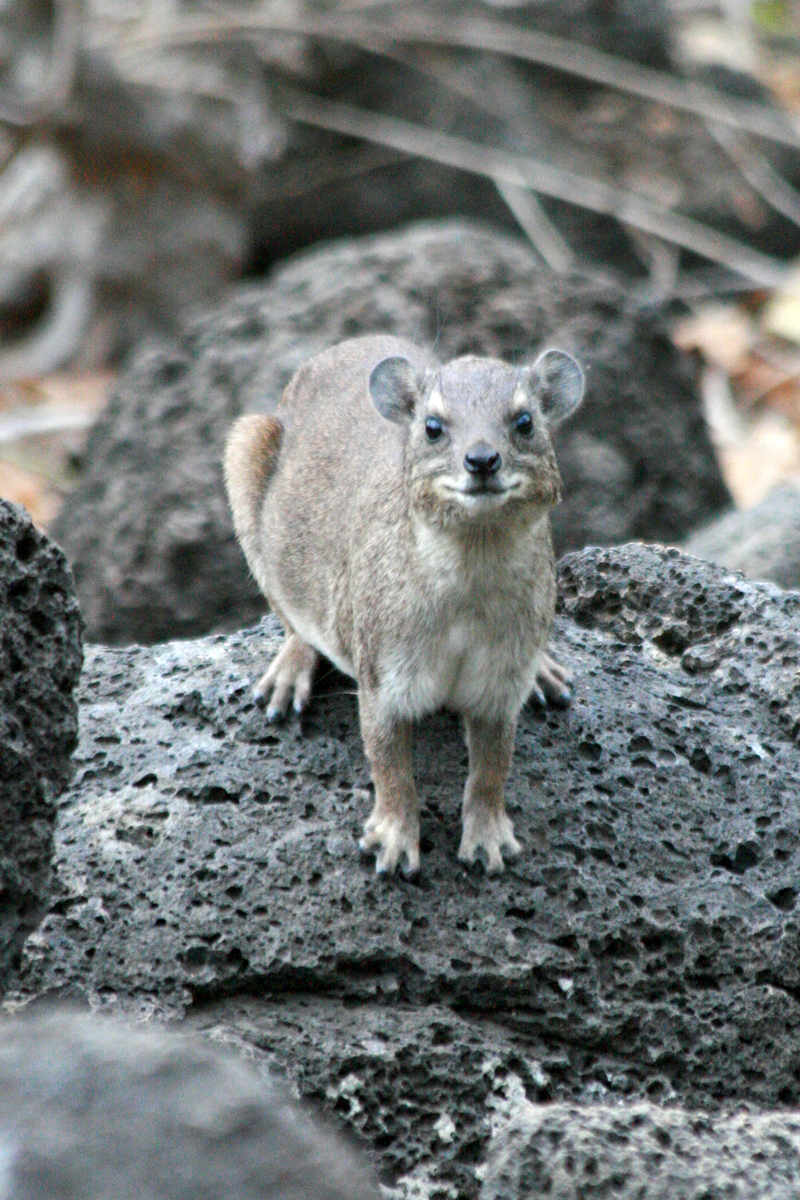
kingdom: Animalia
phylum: Chordata
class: Mammalia
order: Hyracoidea
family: Procaviidae
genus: Heterohyrax
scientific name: Heterohyrax brucei
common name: Bush hyrax
